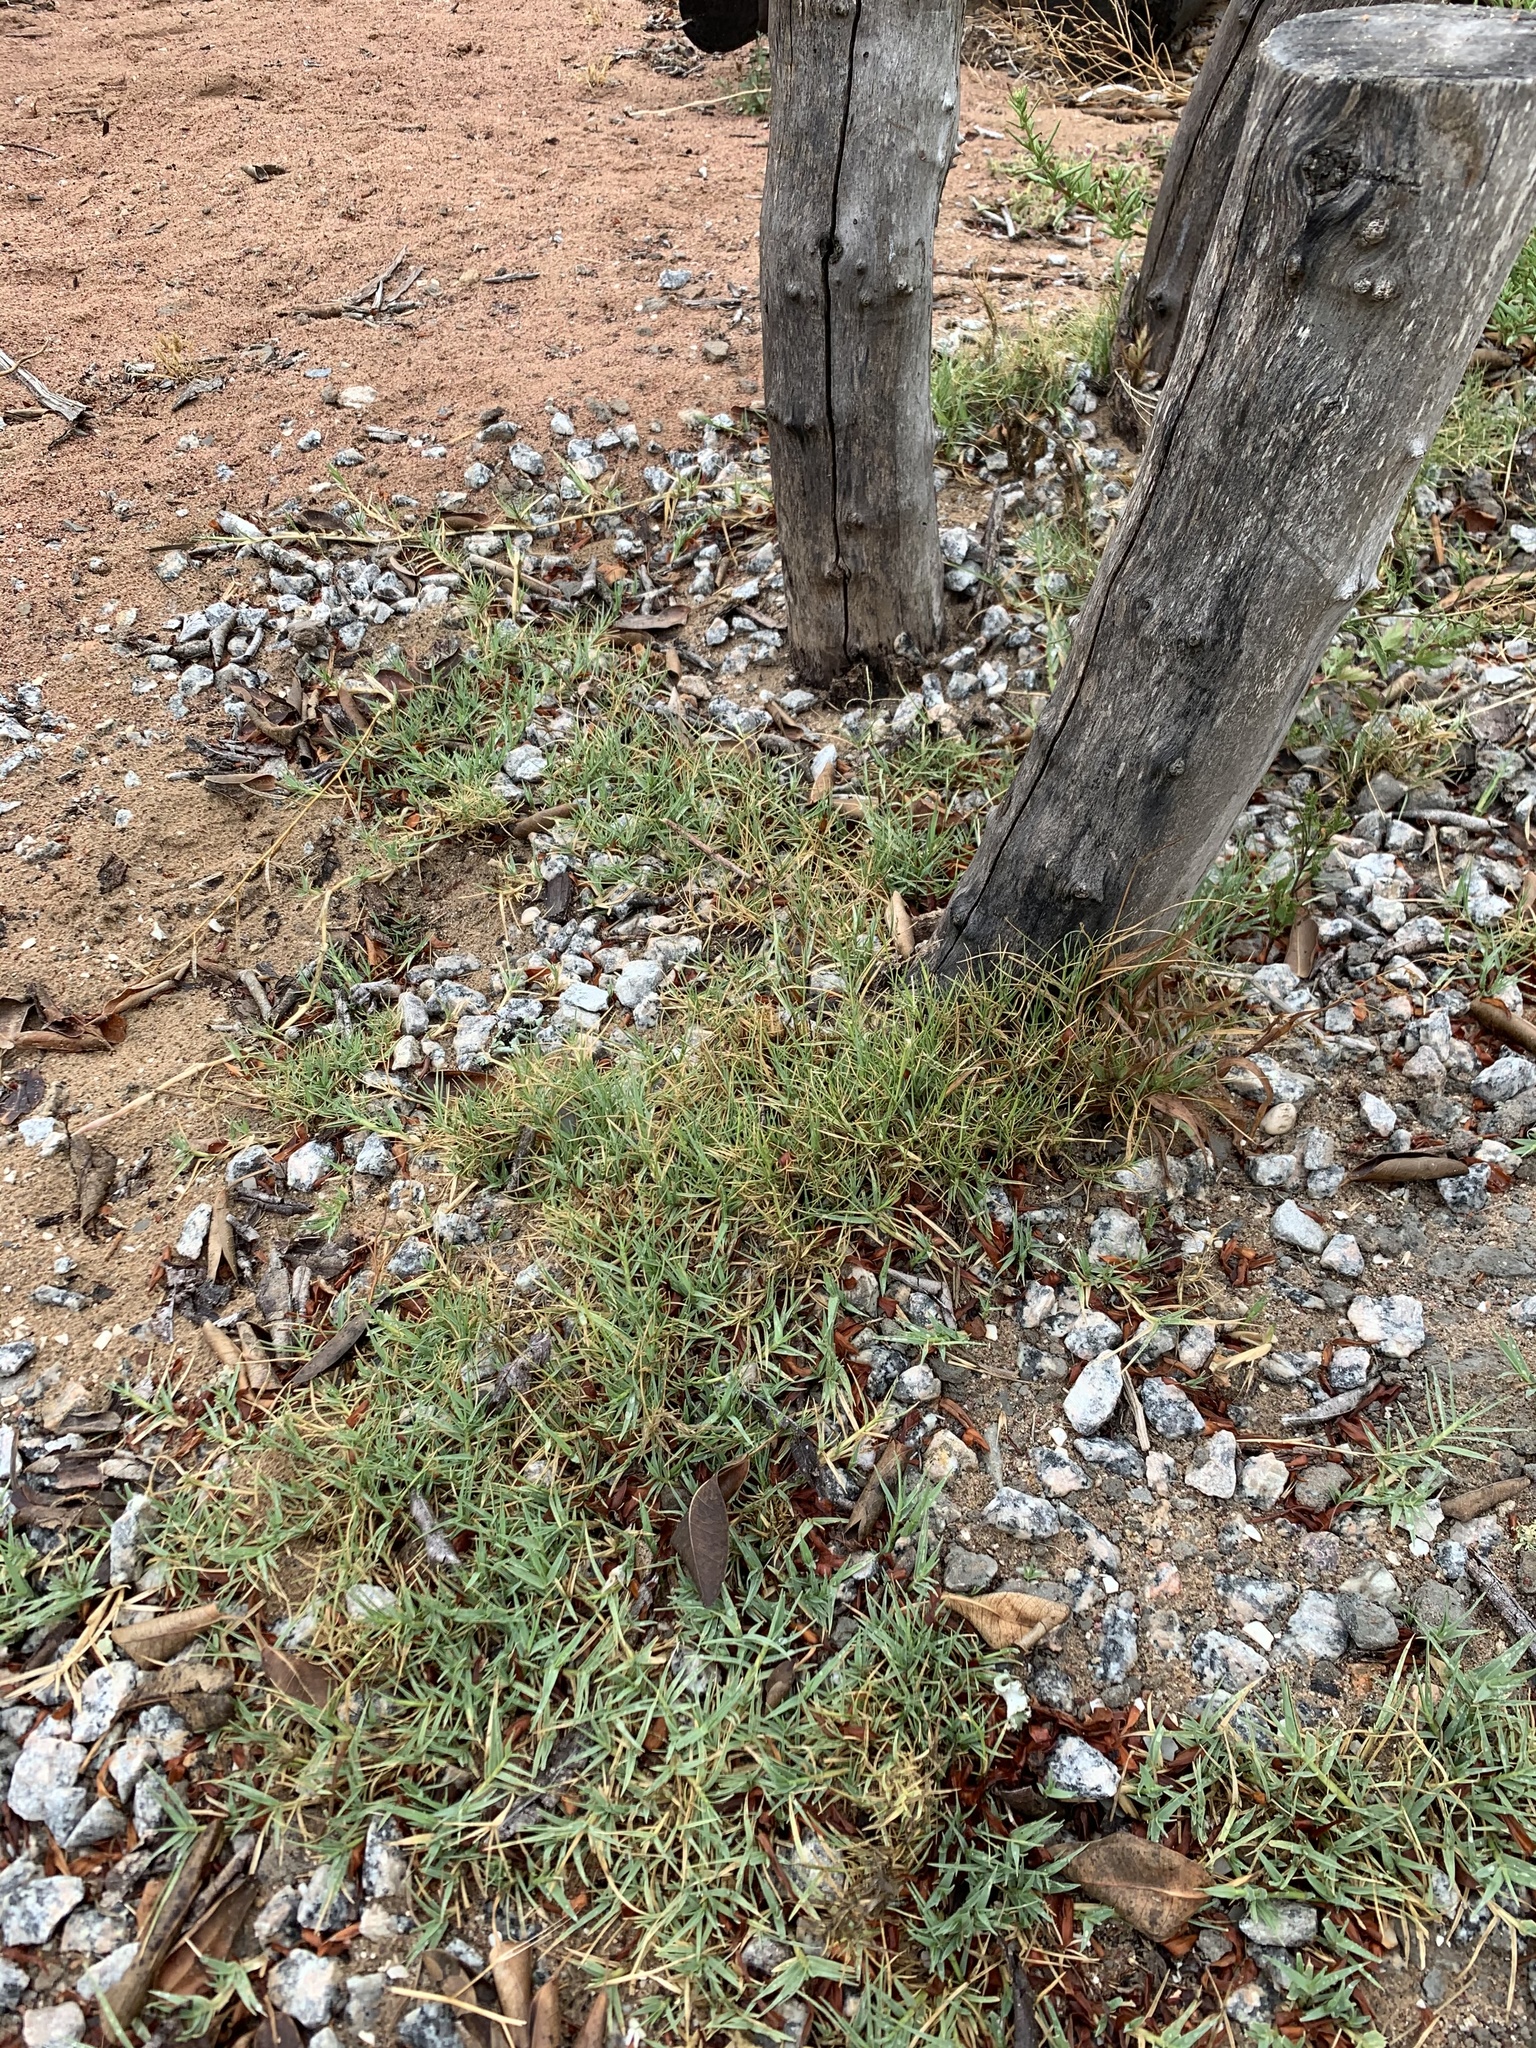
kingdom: Plantae
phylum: Tracheophyta
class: Liliopsida
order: Poales
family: Poaceae
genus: Cynodon
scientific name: Cynodon dactylon
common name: Bermuda grass
